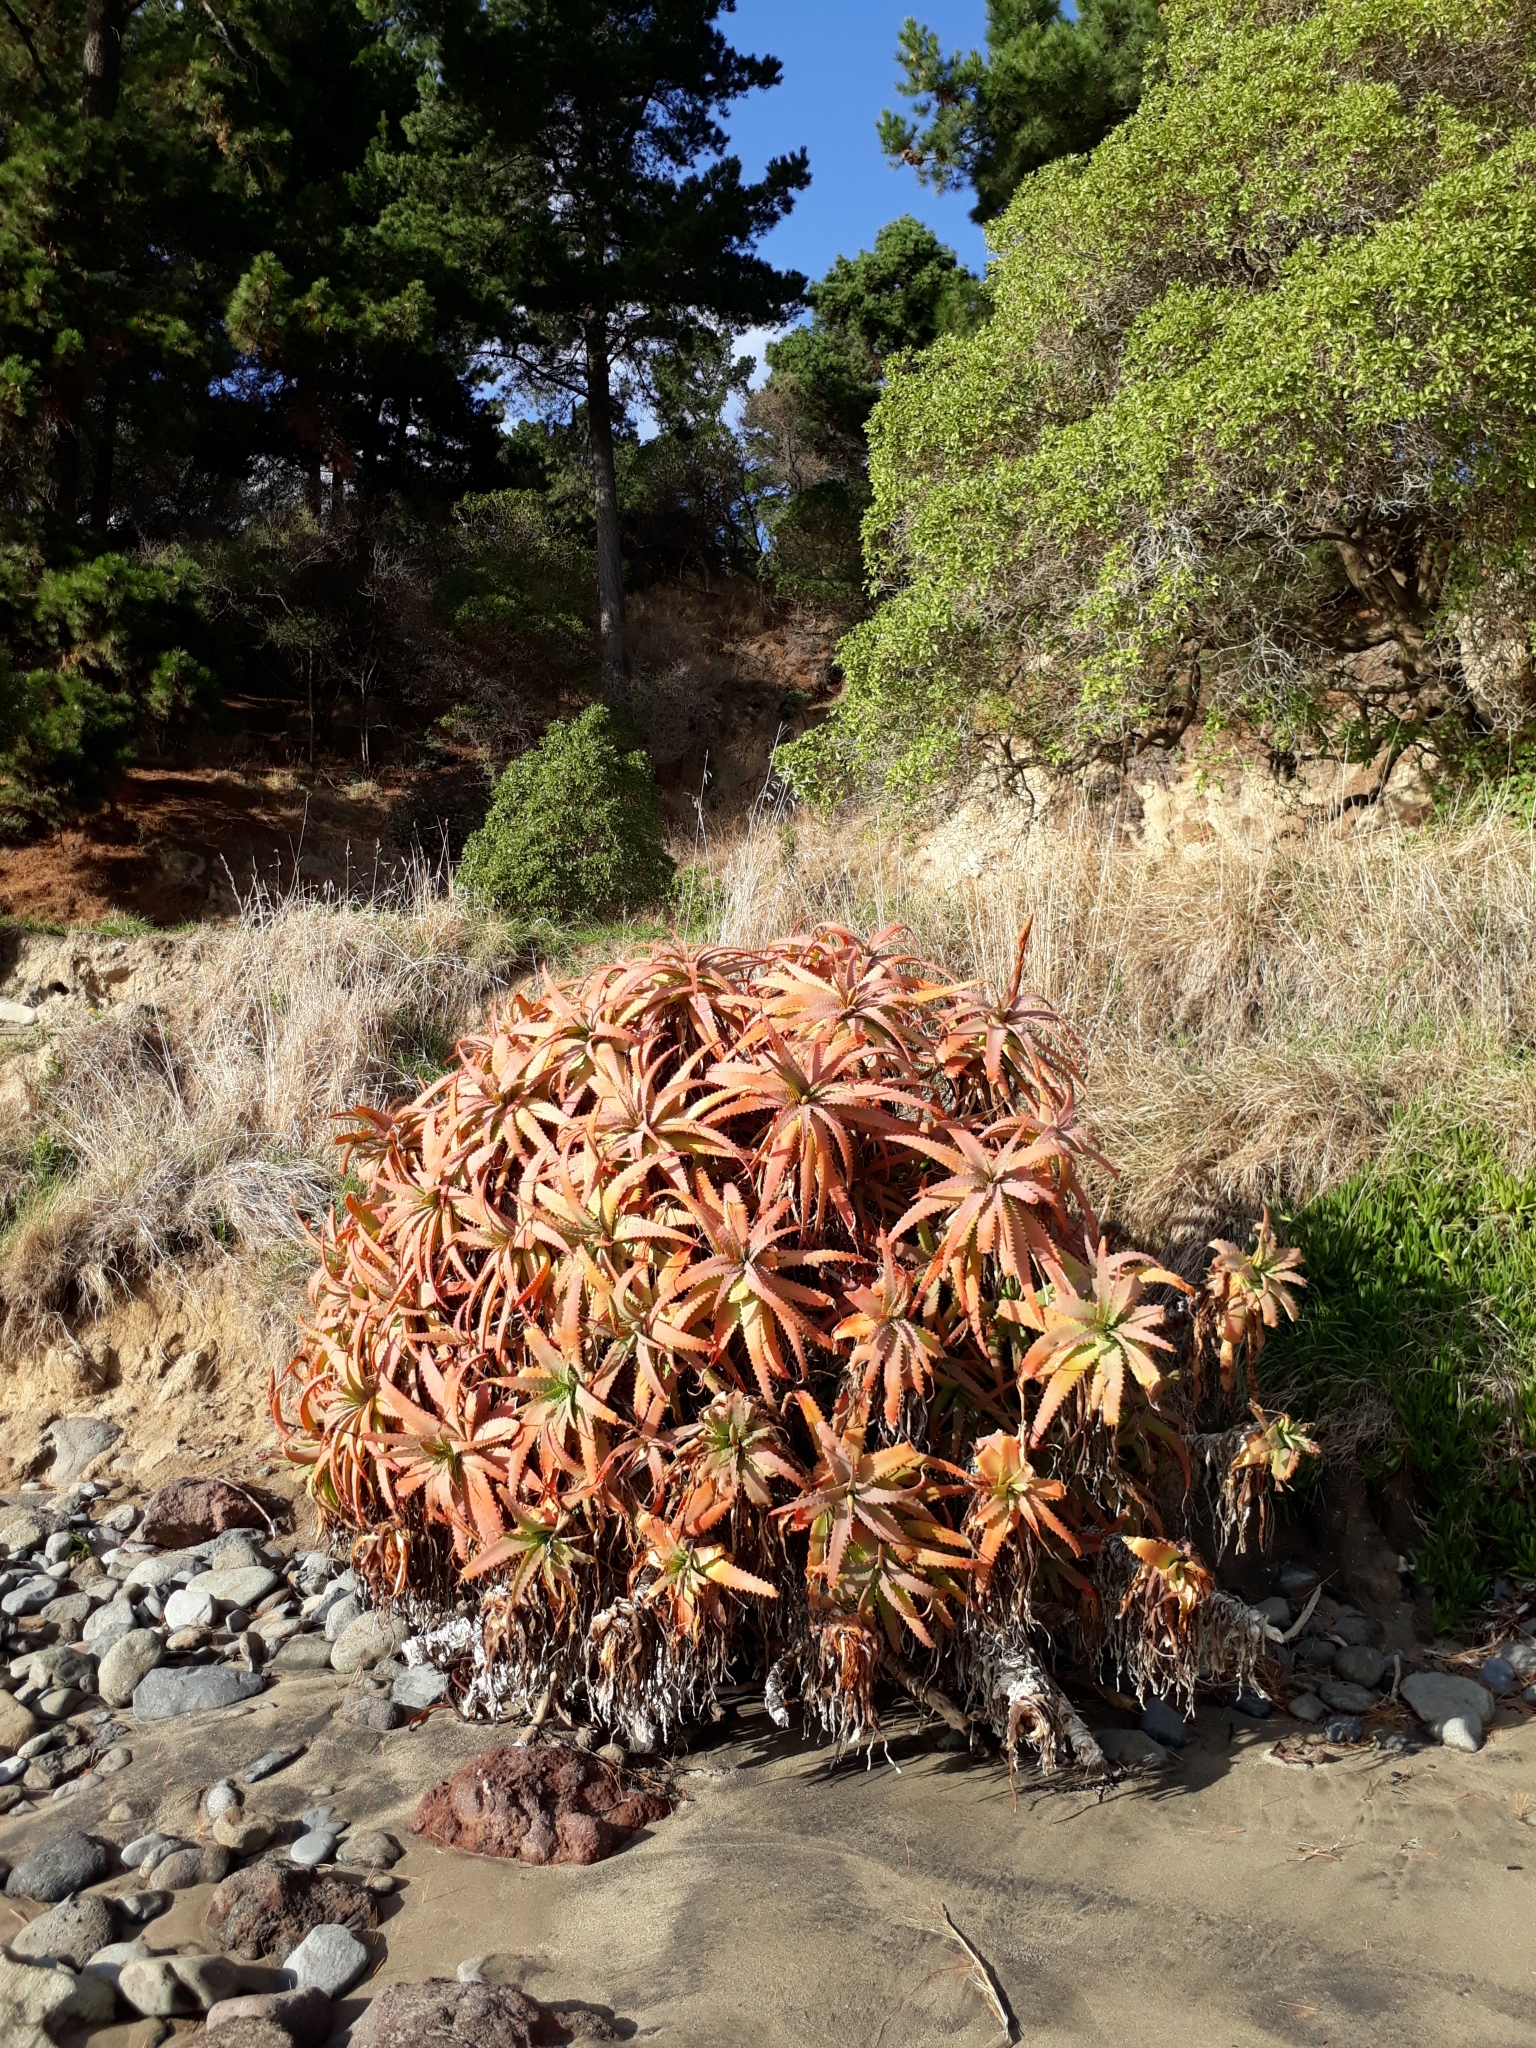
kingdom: Plantae
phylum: Tracheophyta
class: Liliopsida
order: Asparagales
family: Asphodelaceae
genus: Aloe
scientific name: Aloe arborescens
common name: Candelabra aloe
